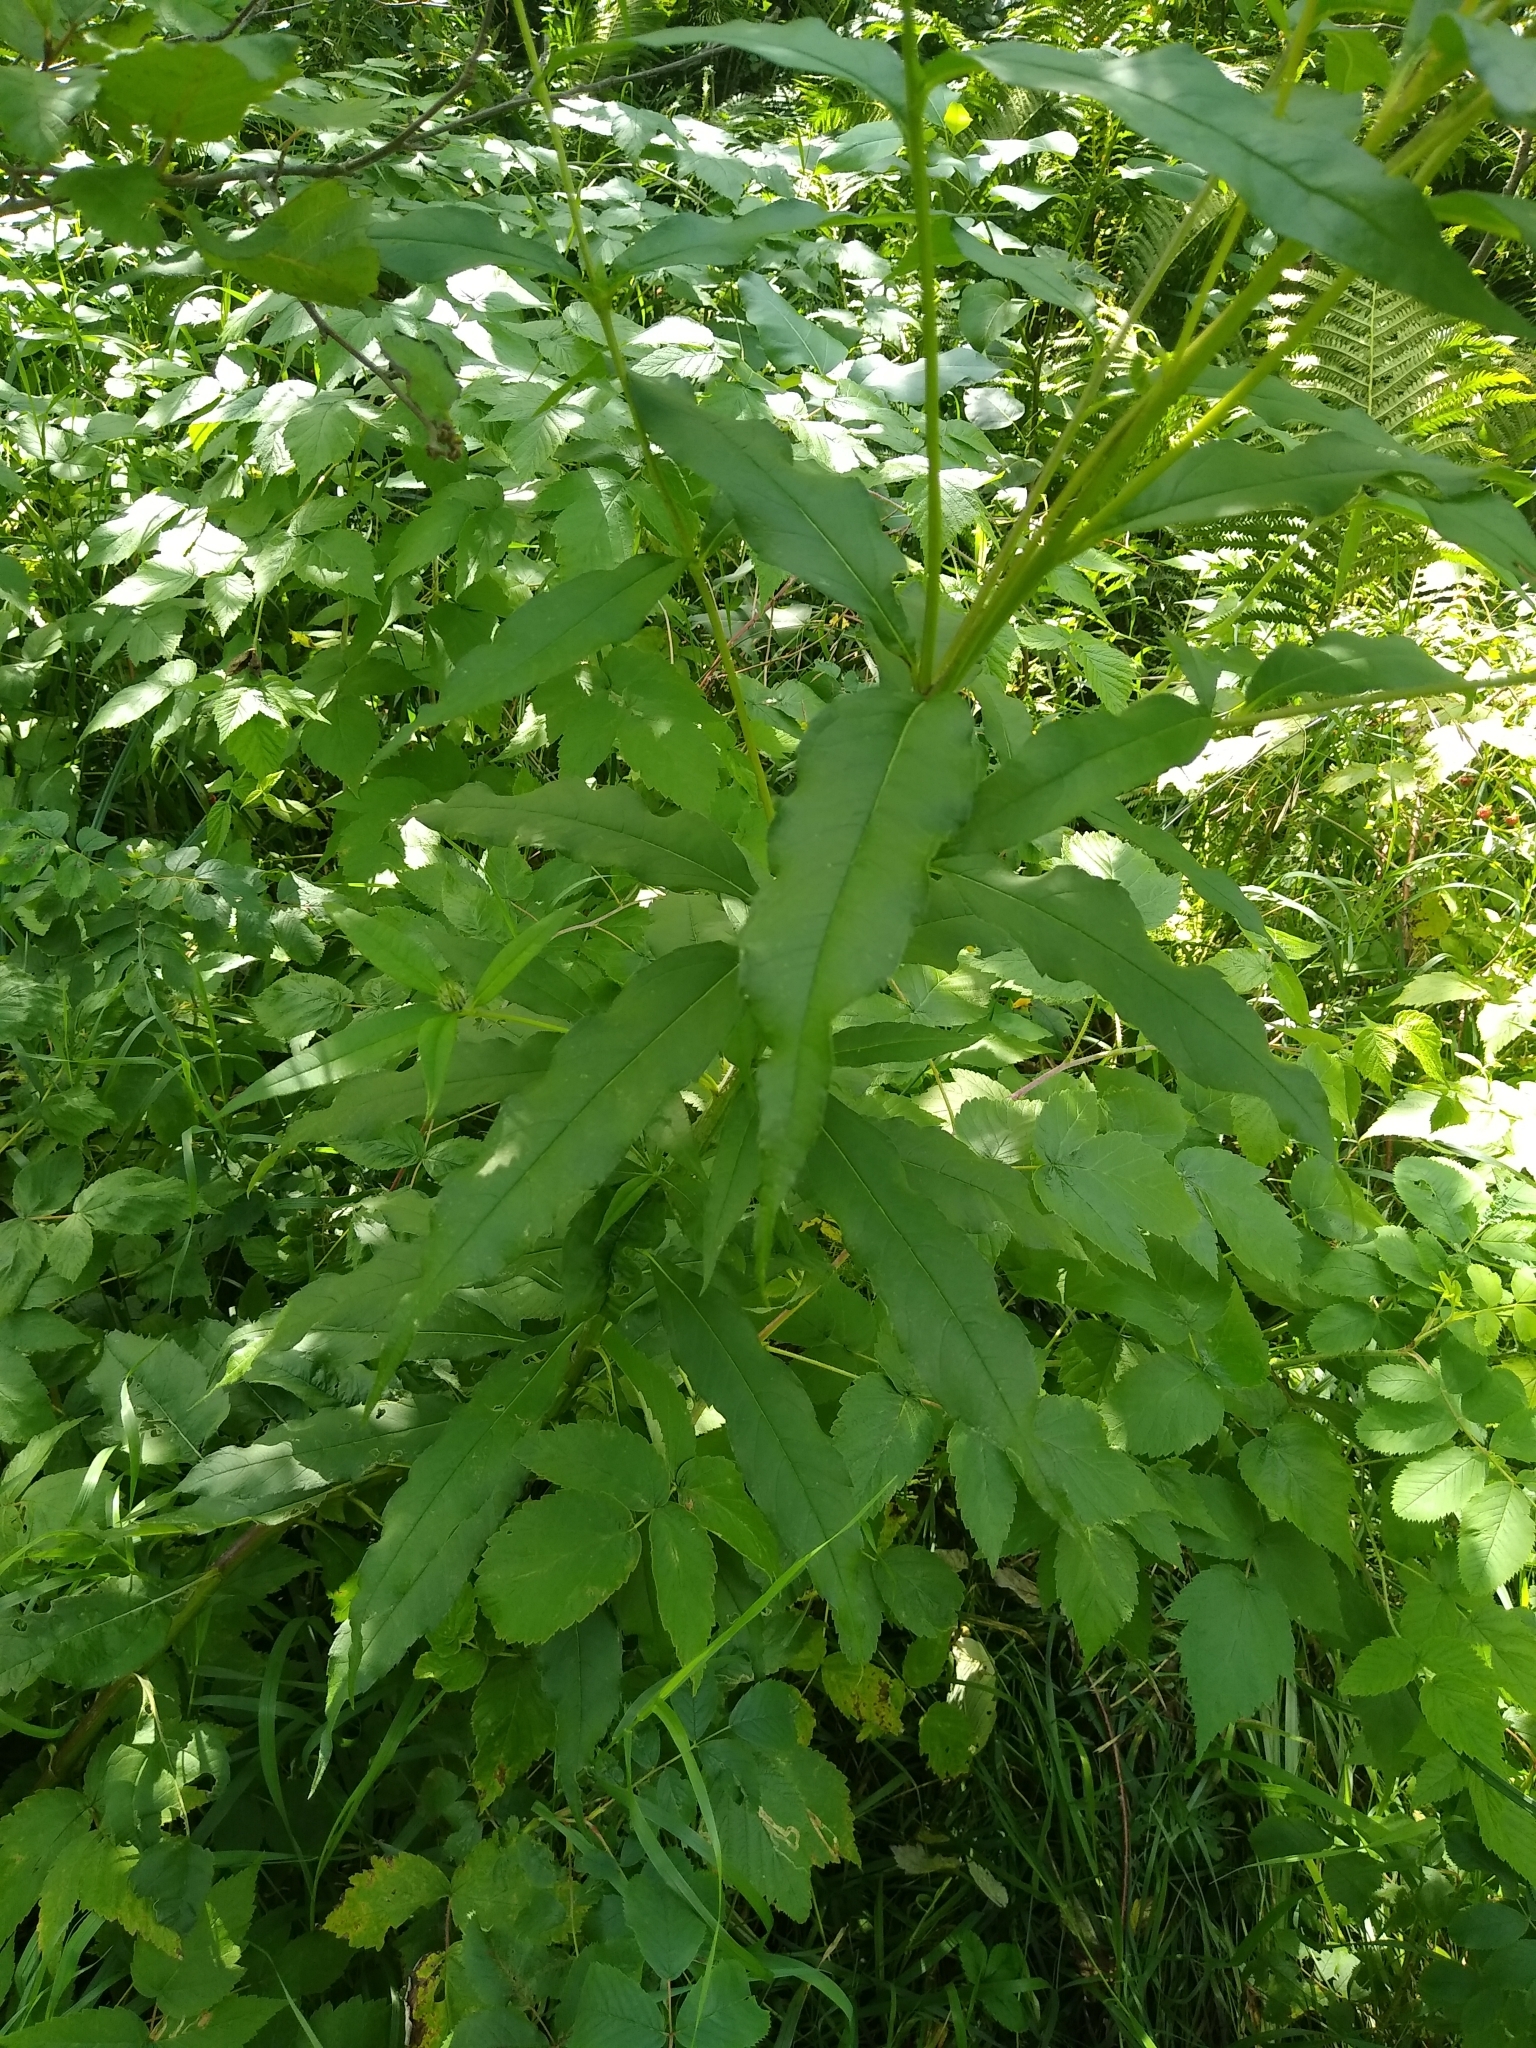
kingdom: Plantae
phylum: Tracheophyta
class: Magnoliopsida
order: Myrtales
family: Onagraceae
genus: Chamaenerion
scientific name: Chamaenerion angustifolium
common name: Fireweed
